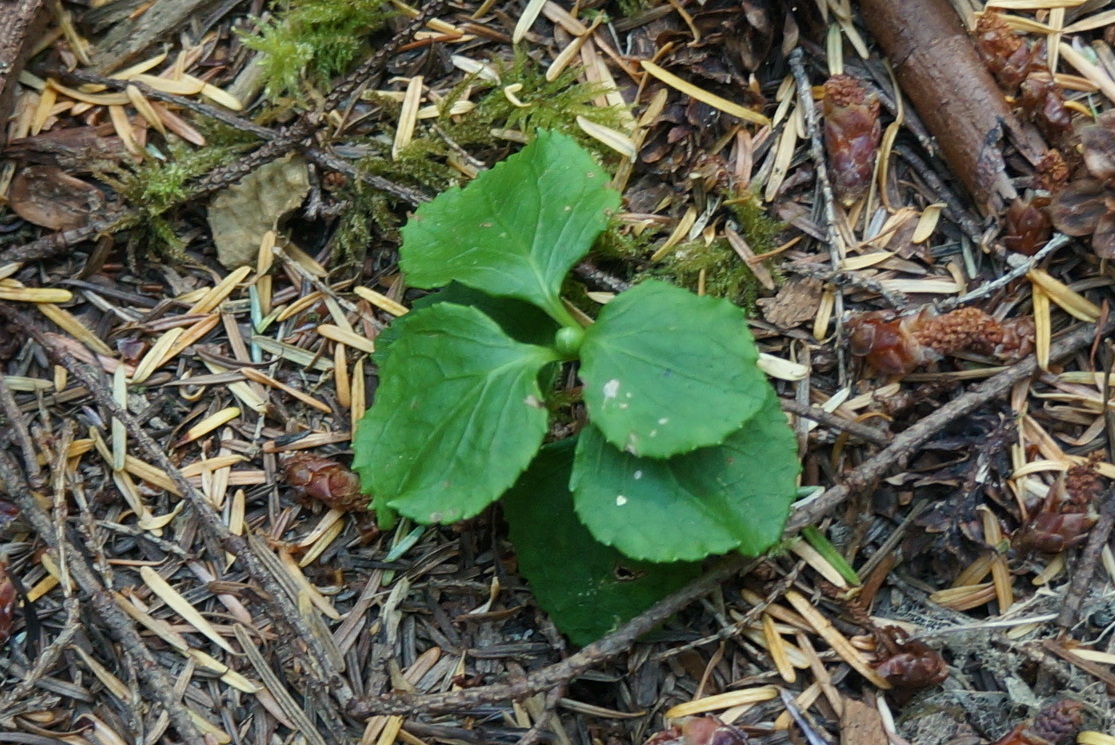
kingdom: Plantae
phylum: Tracheophyta
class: Magnoliopsida
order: Ericales
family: Ericaceae
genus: Moneses
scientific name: Moneses uniflora
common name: One-flowered wintergreen
